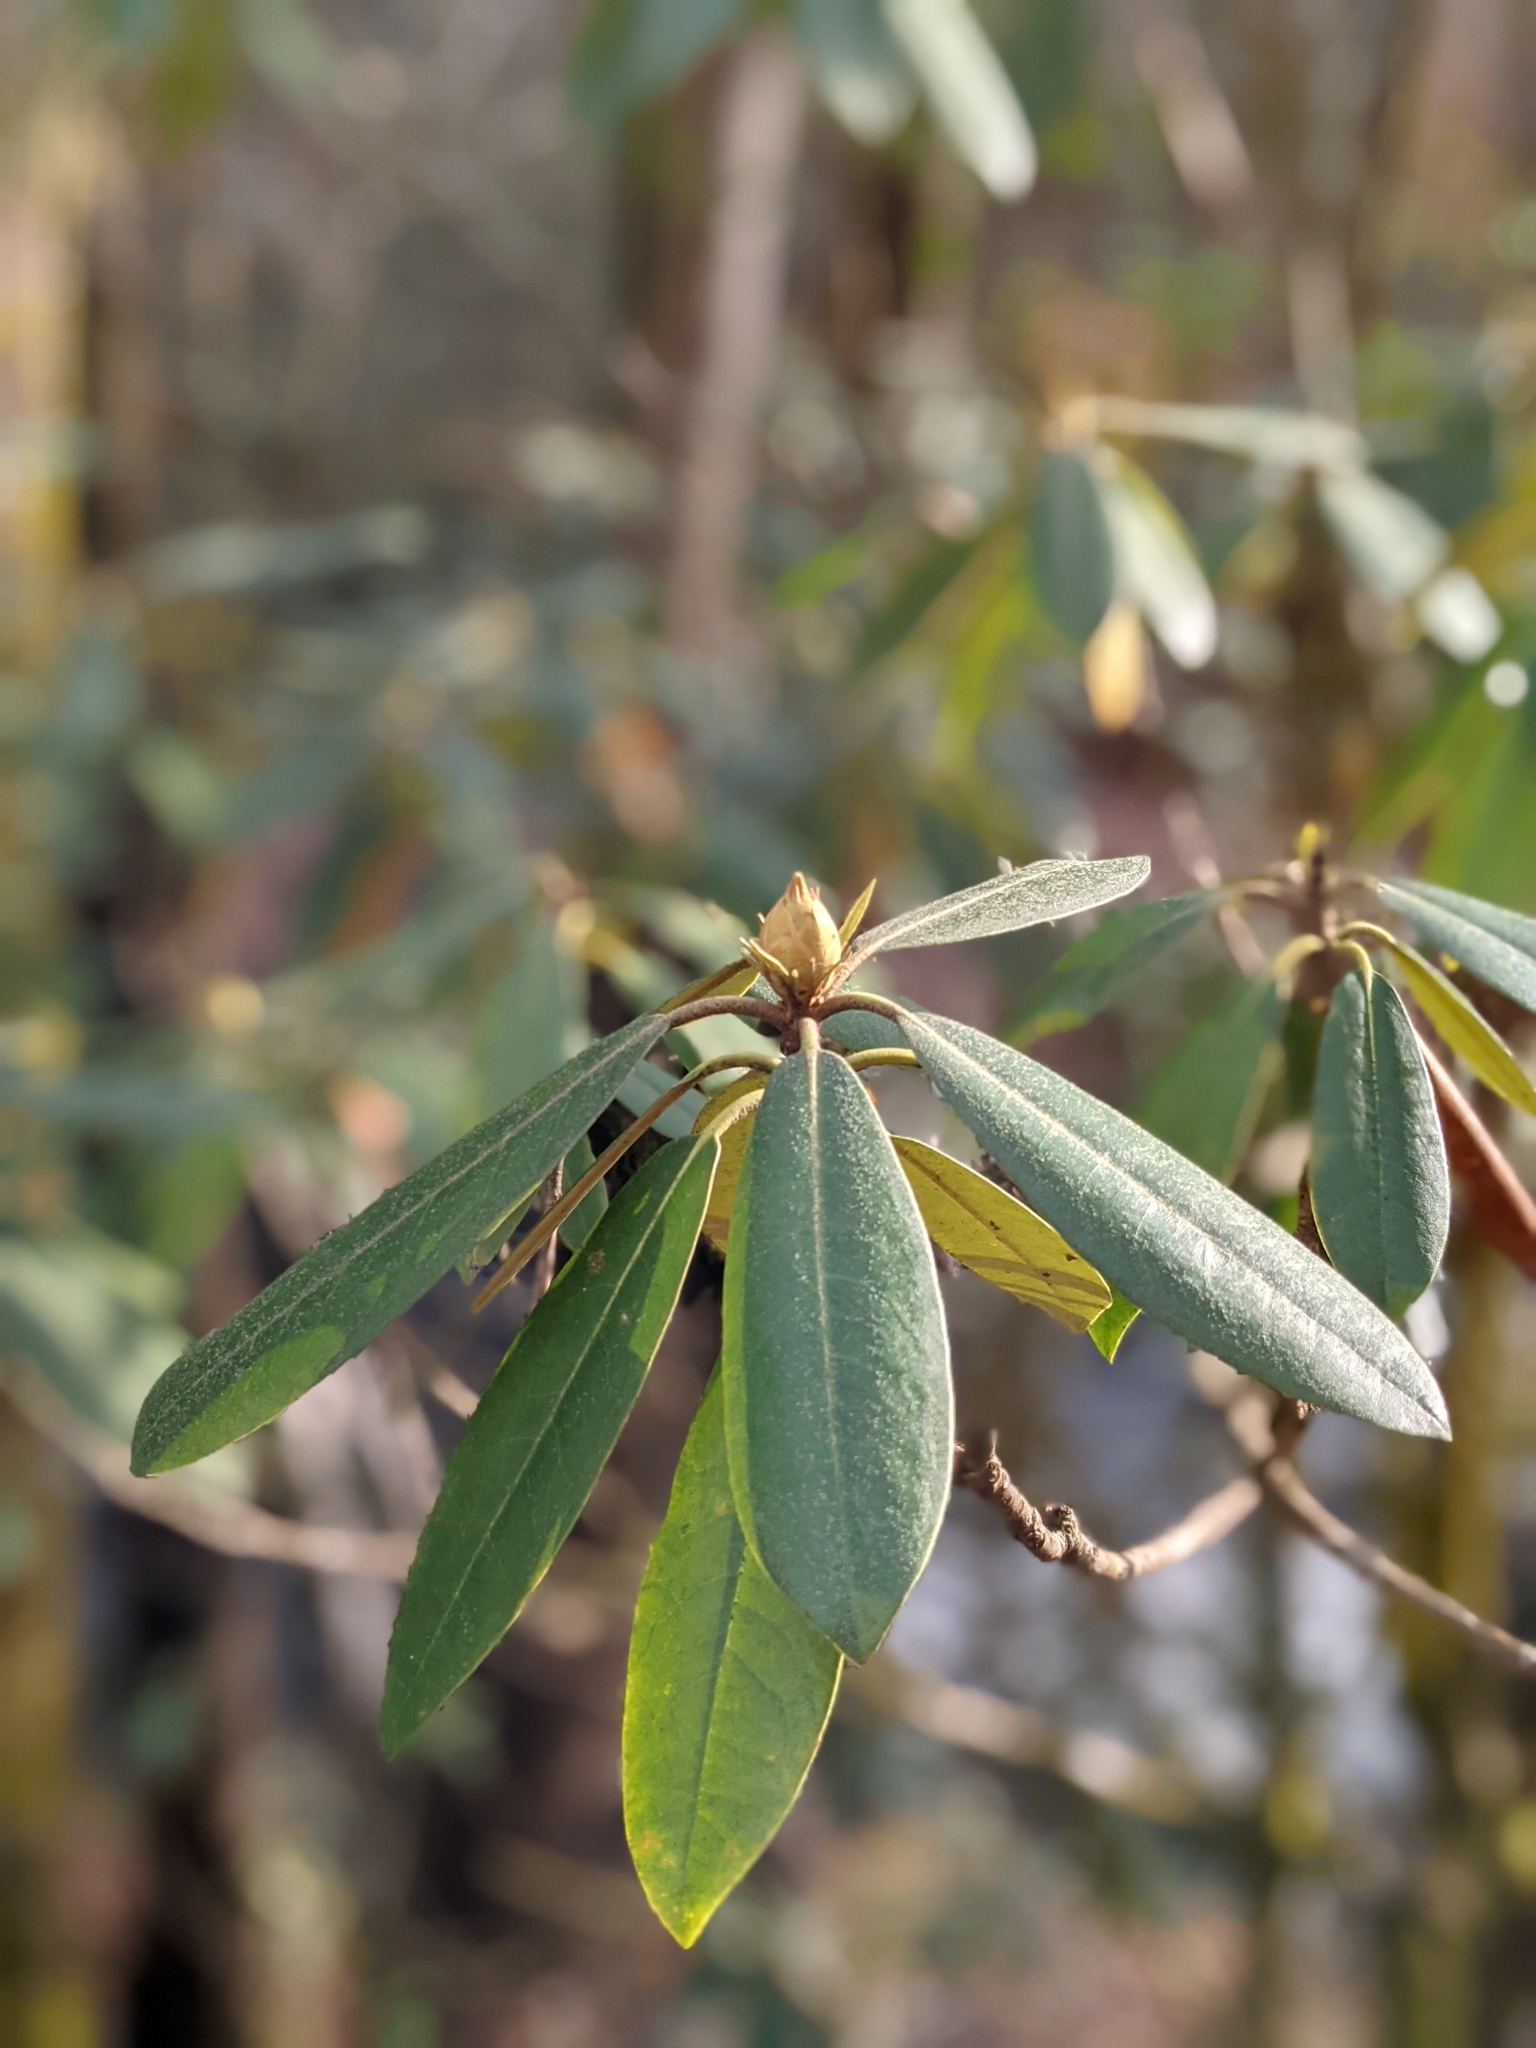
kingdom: Plantae
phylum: Tracheophyta
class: Magnoliopsida
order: Ericales
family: Ericaceae
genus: Rhododendron
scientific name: Rhododendron maximum
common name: Great rhododendron
